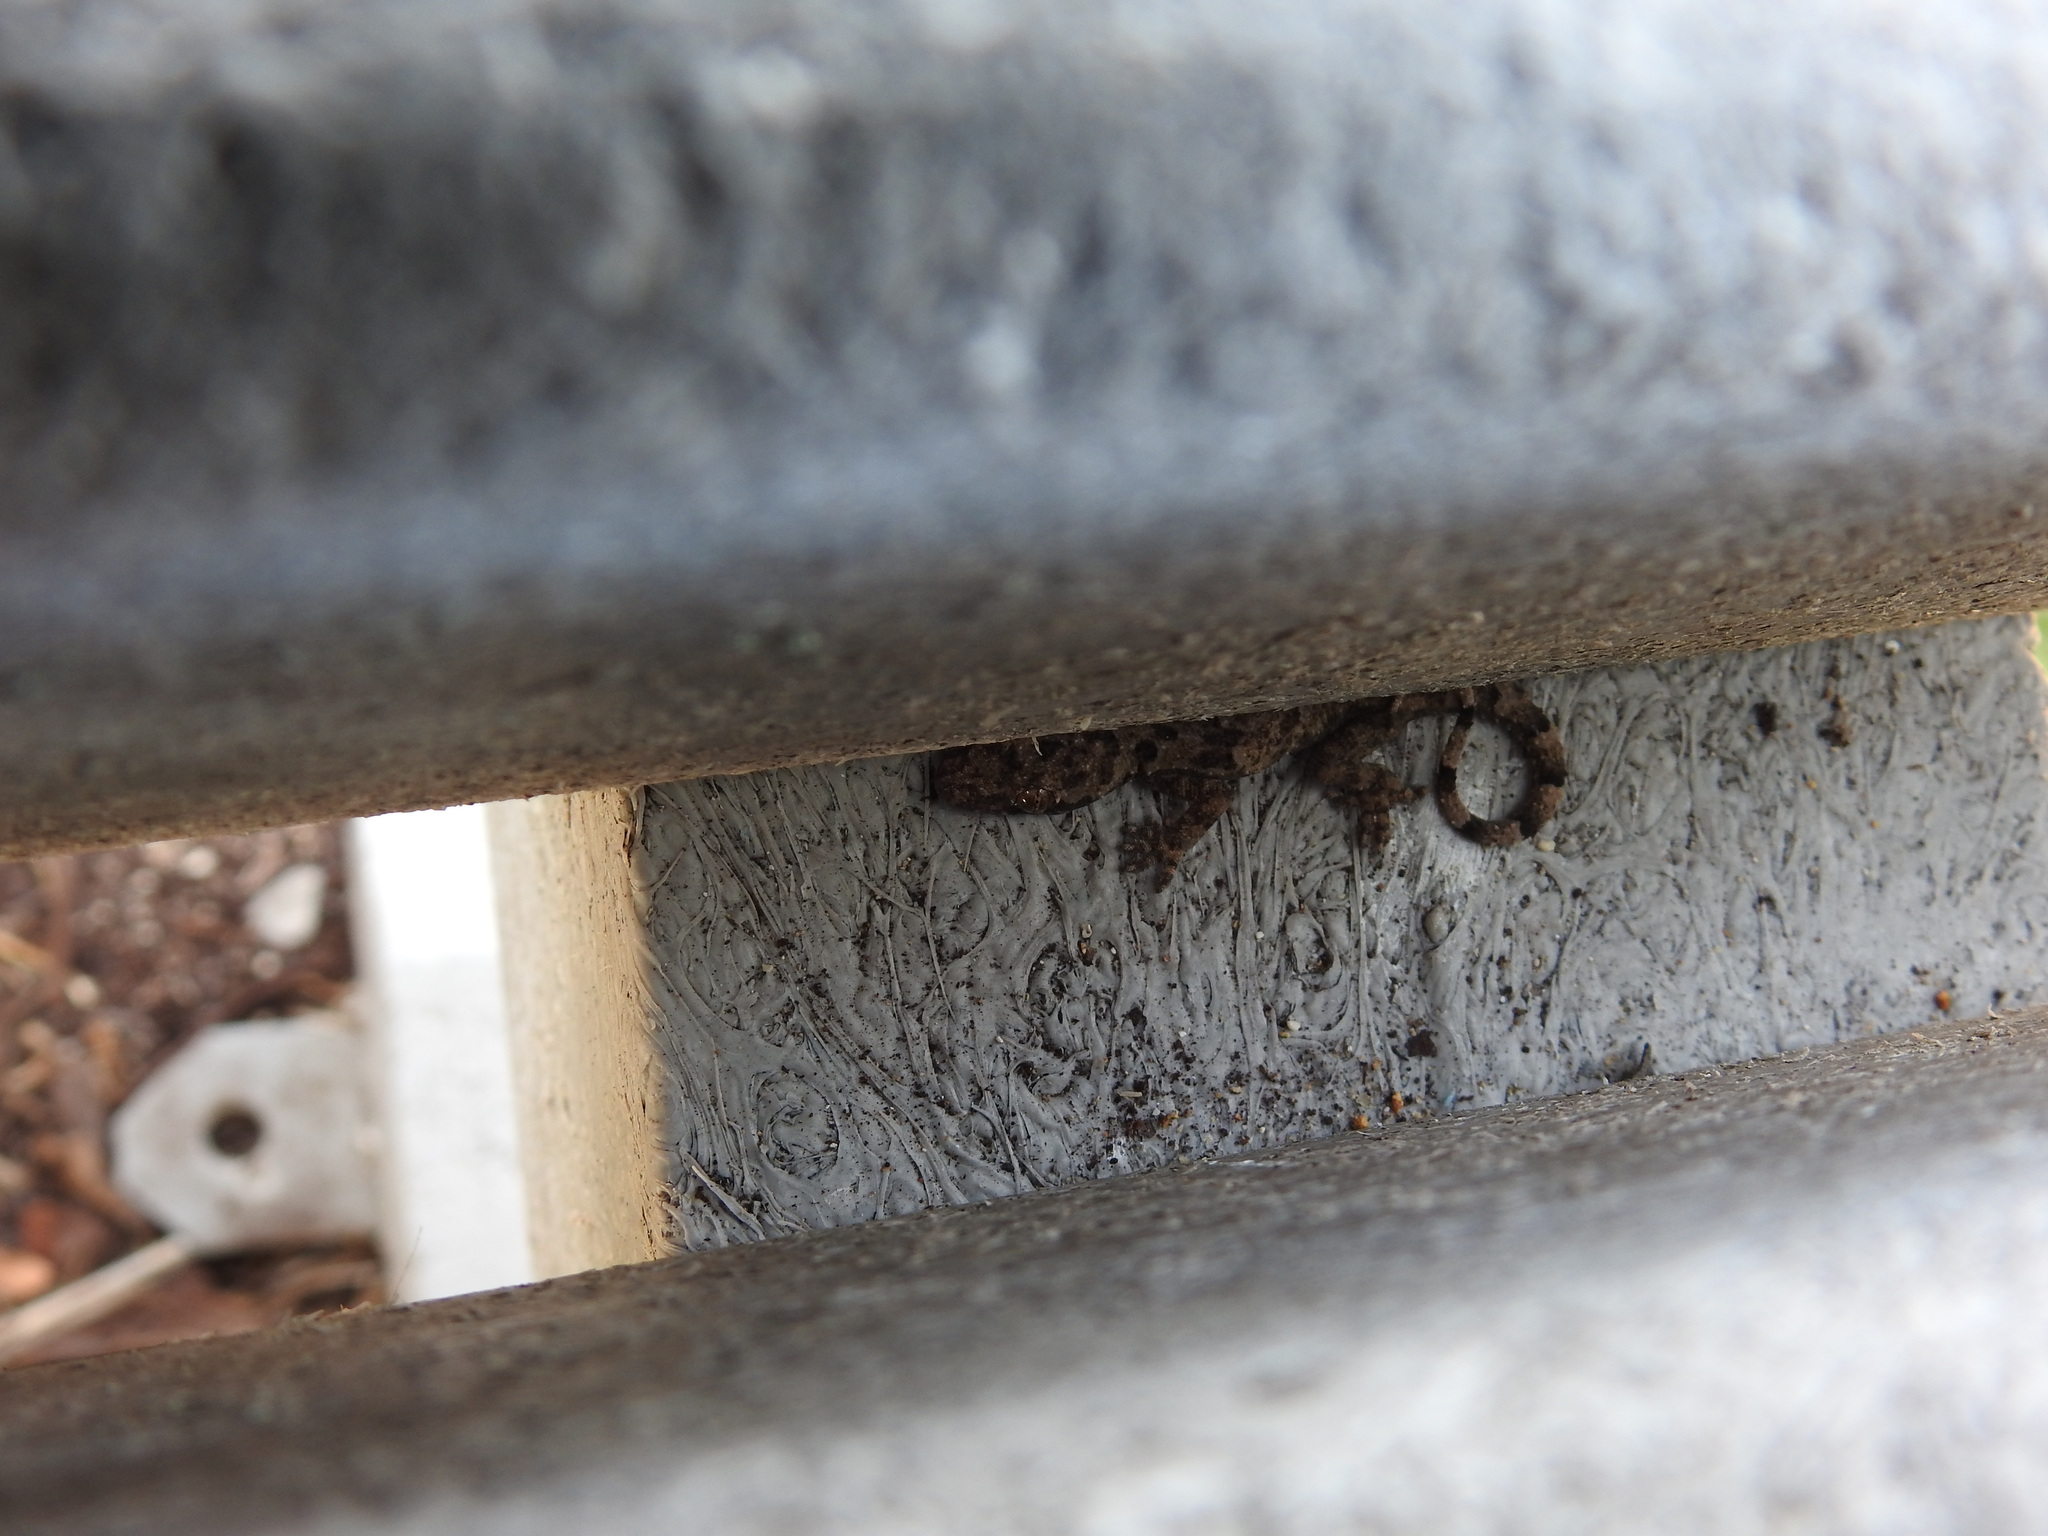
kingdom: Animalia
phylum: Chordata
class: Squamata
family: Gekkonidae
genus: Hemidactylus
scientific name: Hemidactylus mabouia
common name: House gecko
